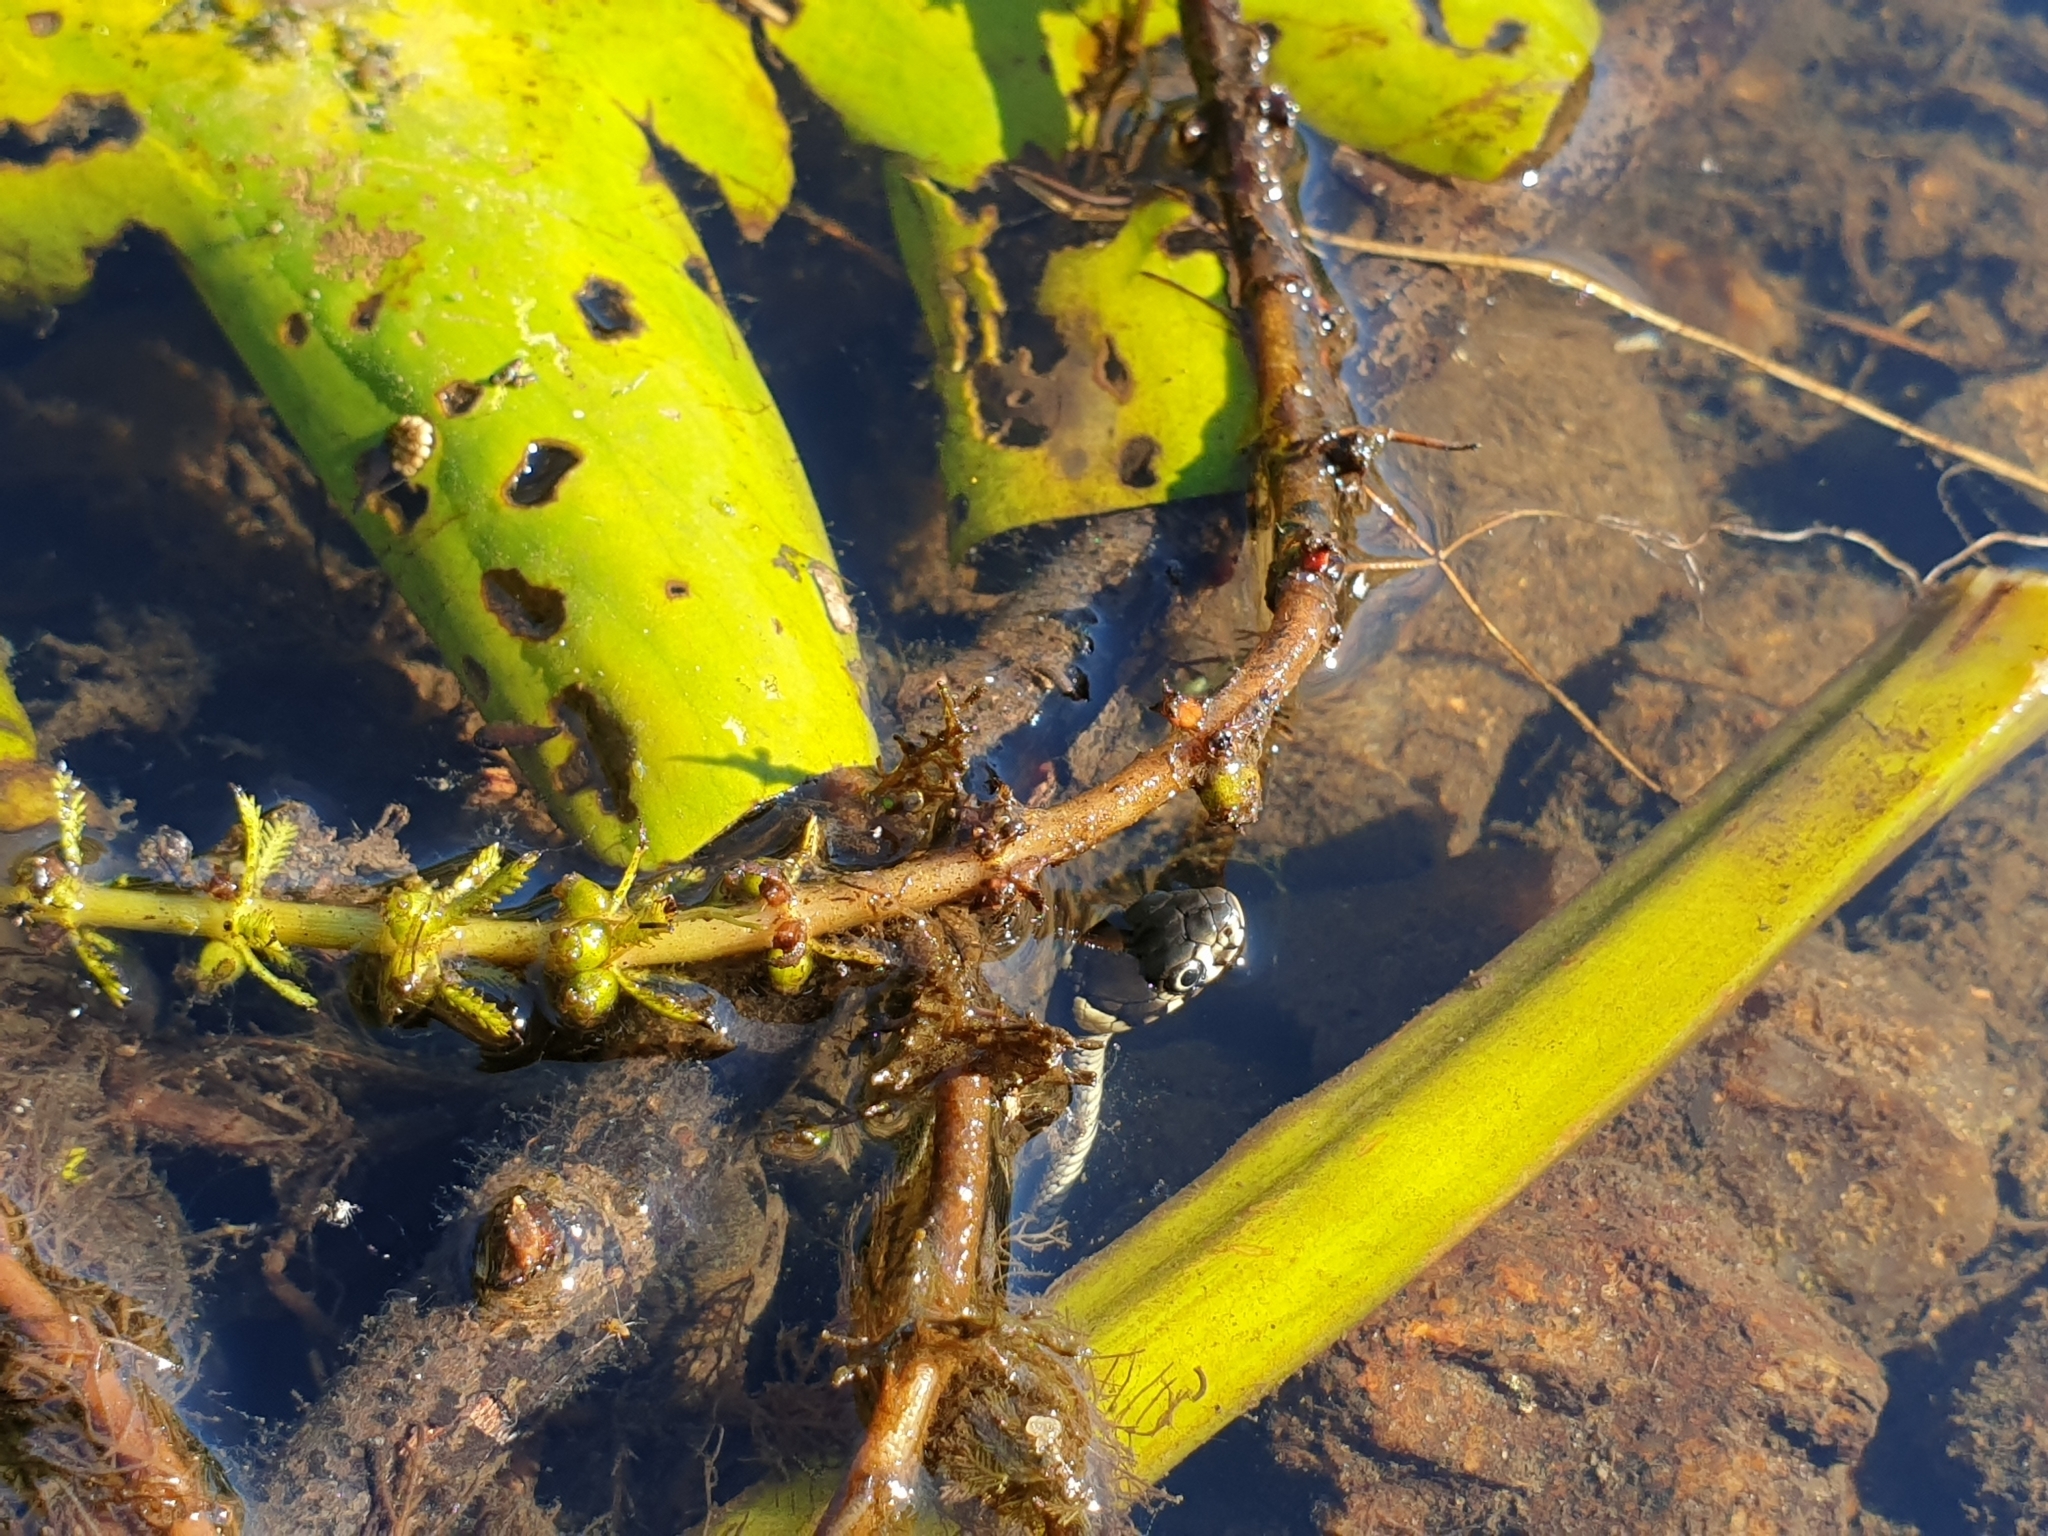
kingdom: Animalia
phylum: Chordata
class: Squamata
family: Colubridae
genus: Natrix
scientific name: Natrix natrix
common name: Grass snake
